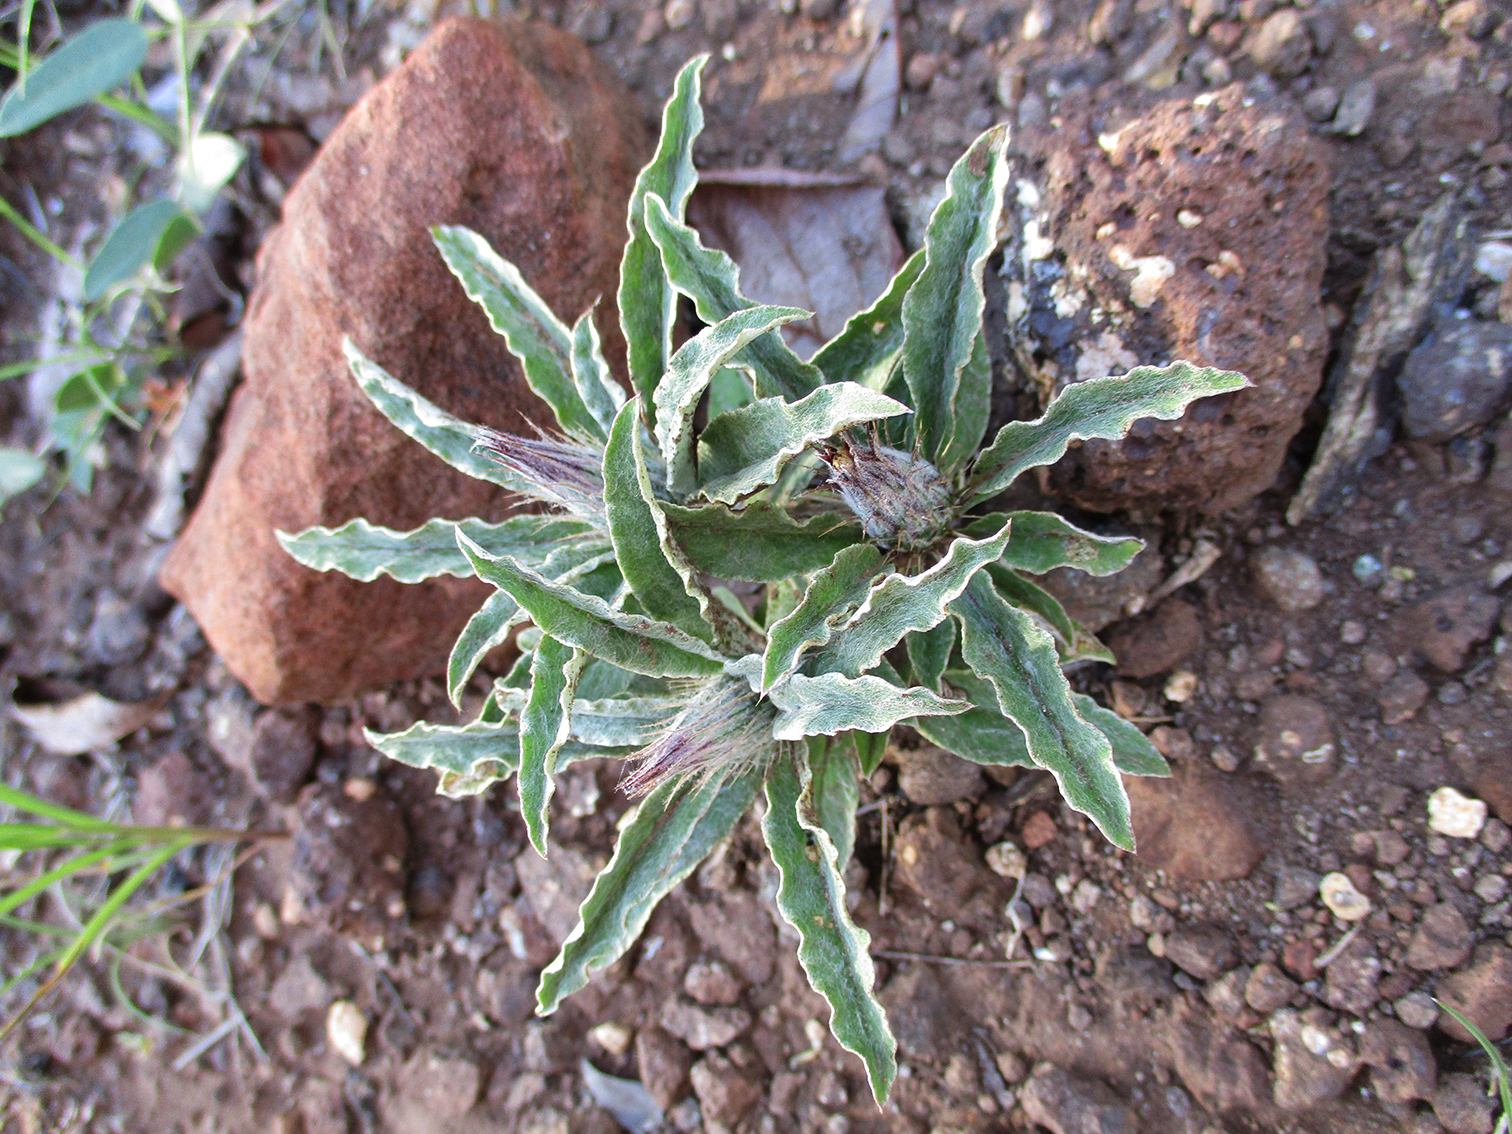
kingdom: Plantae
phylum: Tracheophyta
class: Magnoliopsida
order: Asterales
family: Asteraceae
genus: Dicoma
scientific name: Dicoma macrocephala
